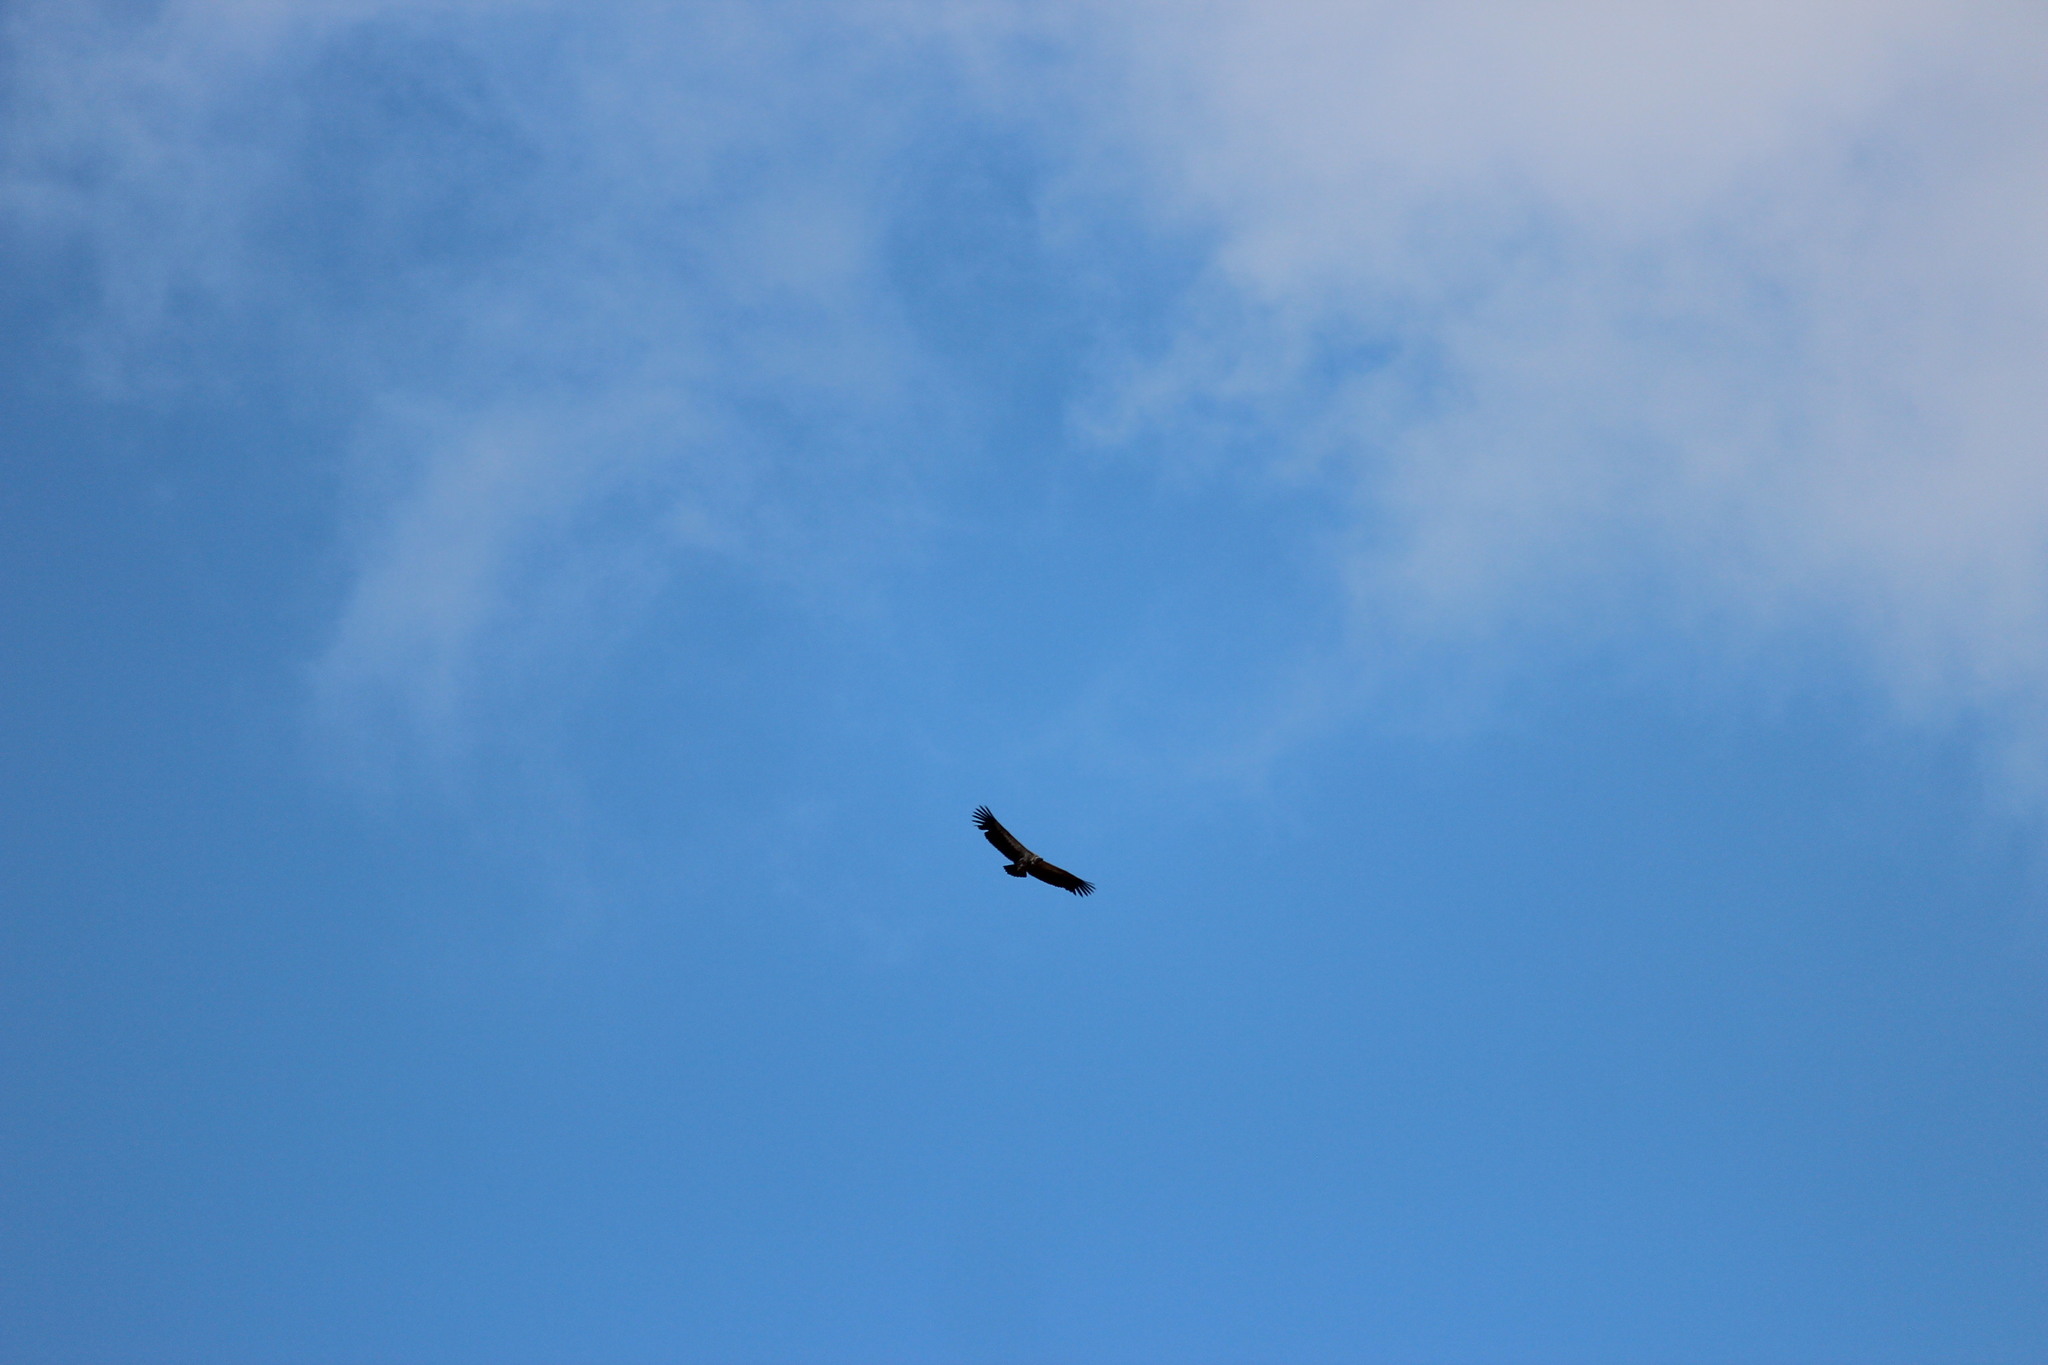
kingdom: Animalia
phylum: Chordata
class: Aves
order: Accipitriformes
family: Accipitridae
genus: Gyps
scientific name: Gyps coprotheres
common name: Cape vulture
